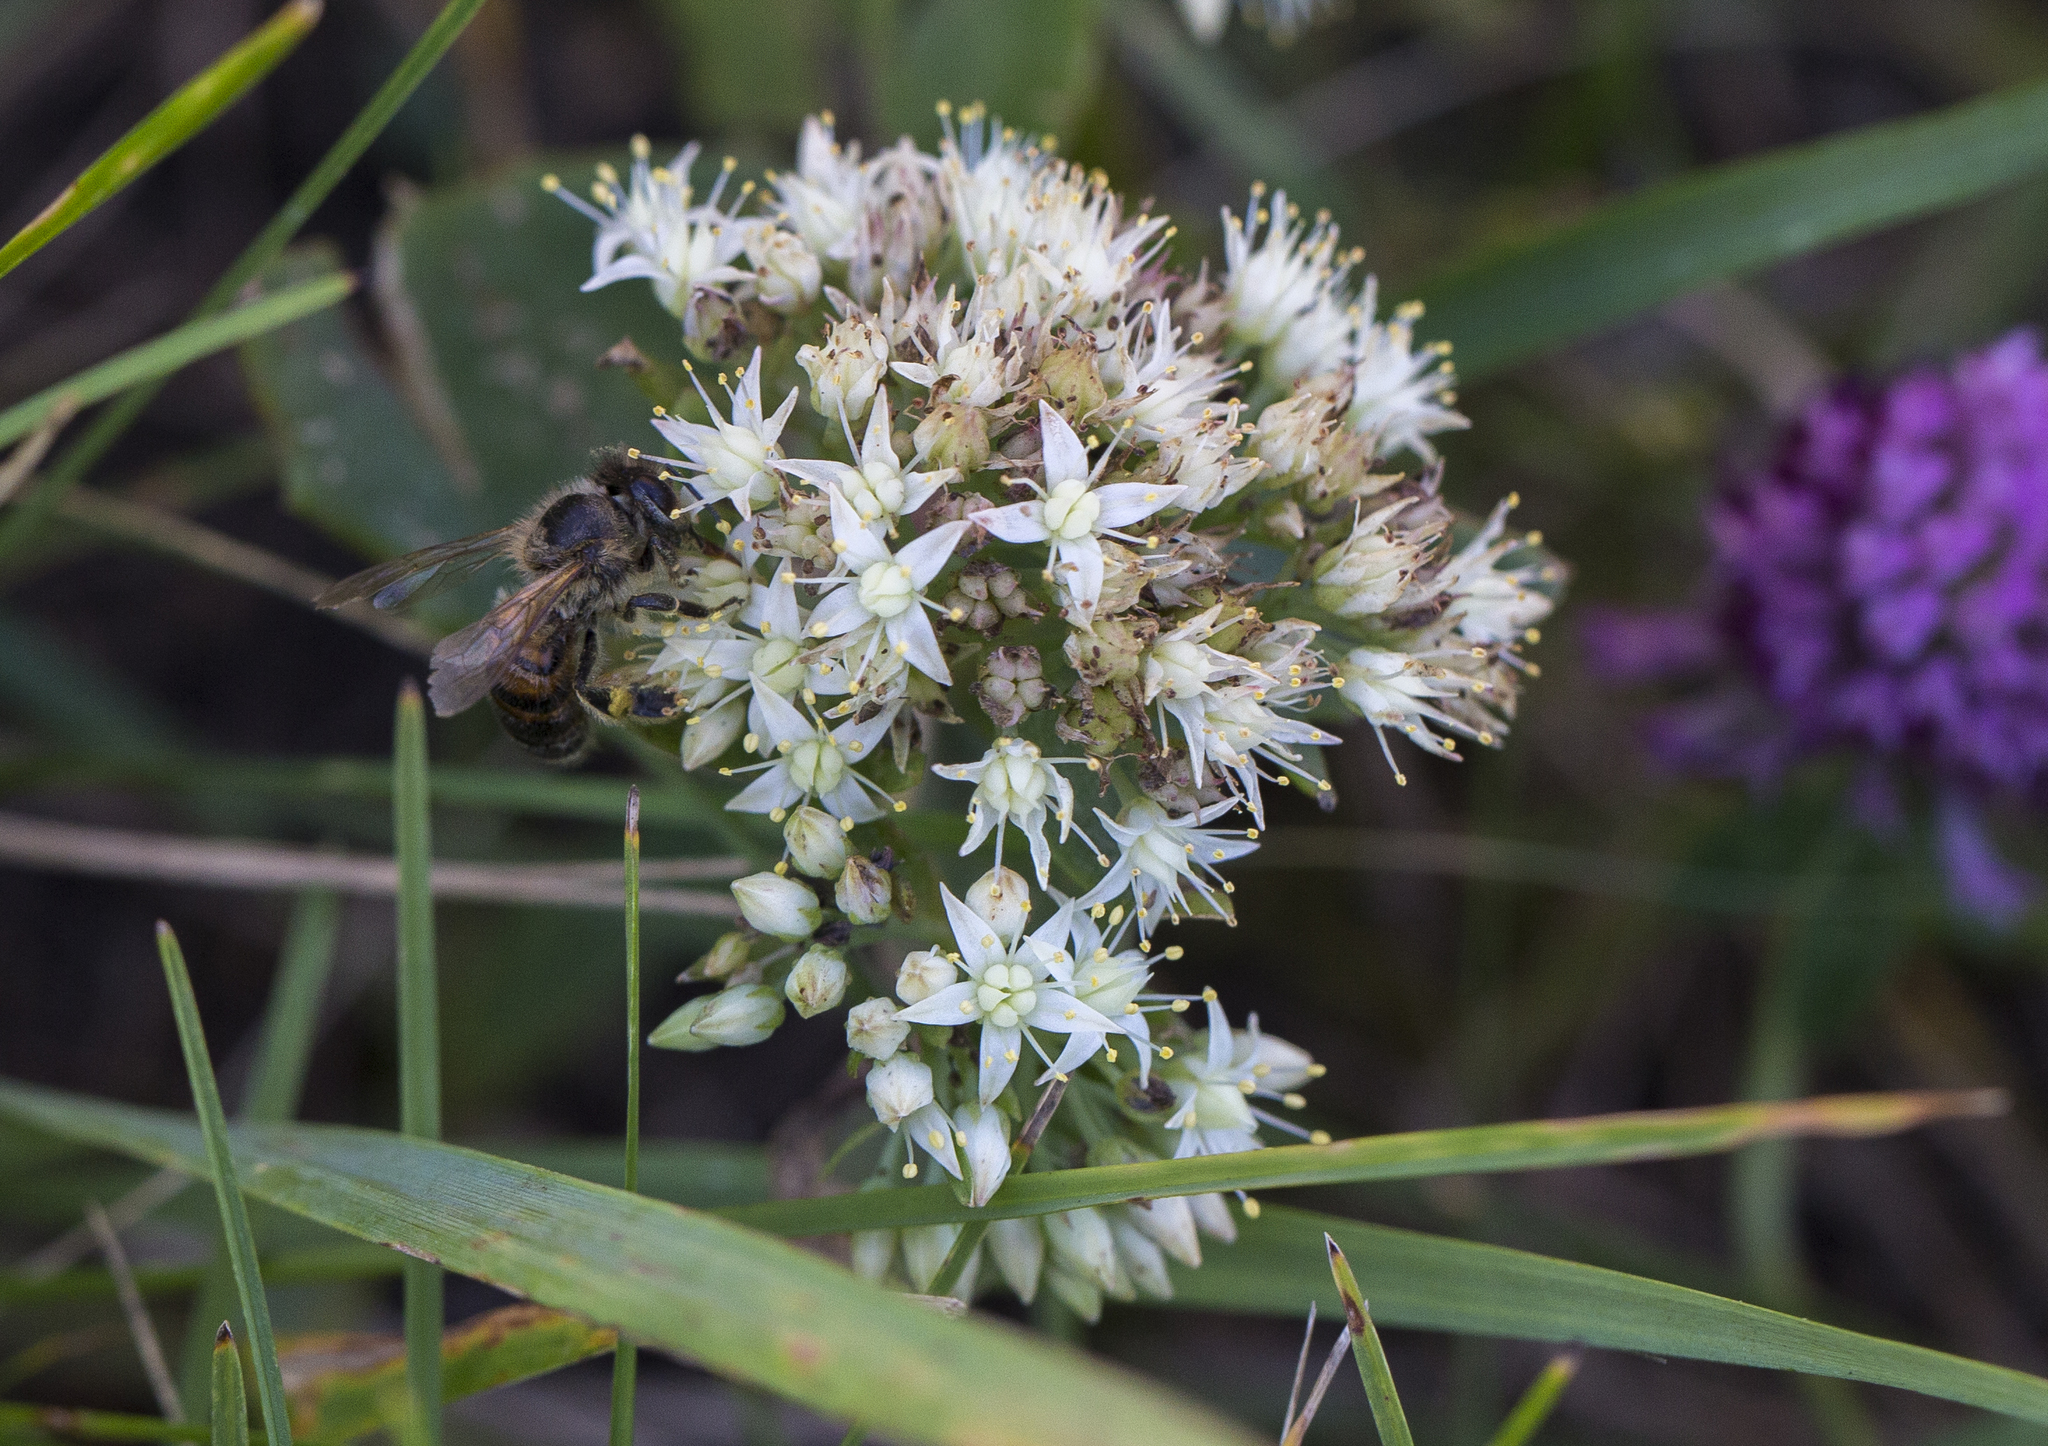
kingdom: Animalia
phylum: Arthropoda
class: Insecta
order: Hymenoptera
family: Apidae
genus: Apis
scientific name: Apis mellifera
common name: Honey bee
